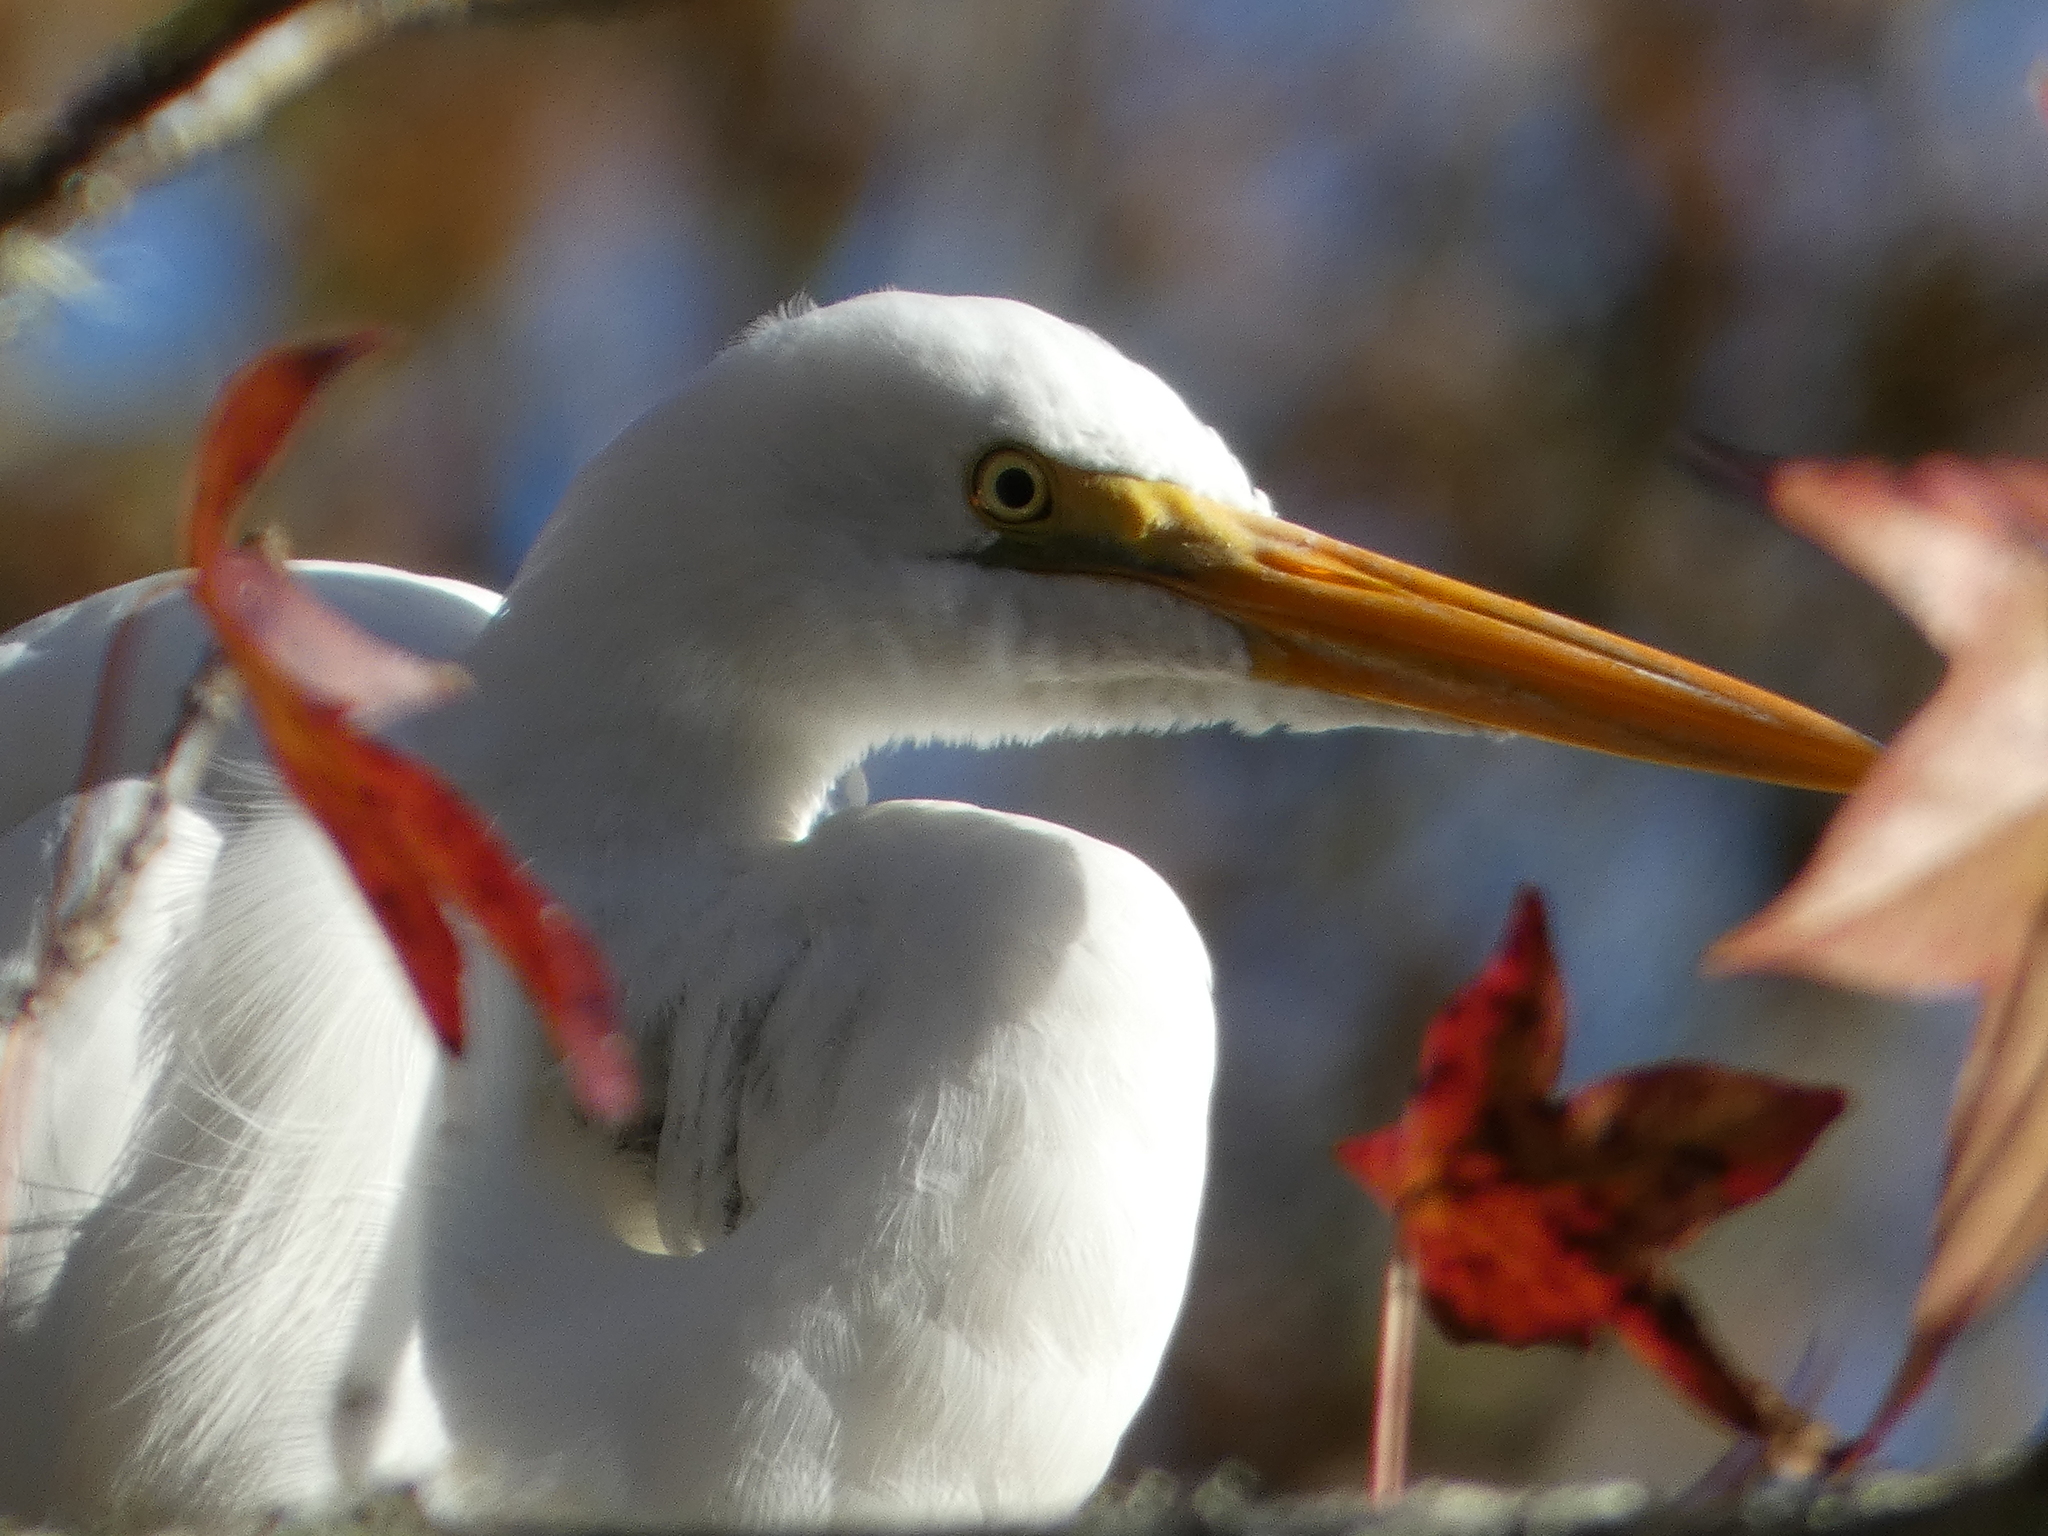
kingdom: Animalia
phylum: Chordata
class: Aves
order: Pelecaniformes
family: Ardeidae
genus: Ardea
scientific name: Ardea alba
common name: Great egret
